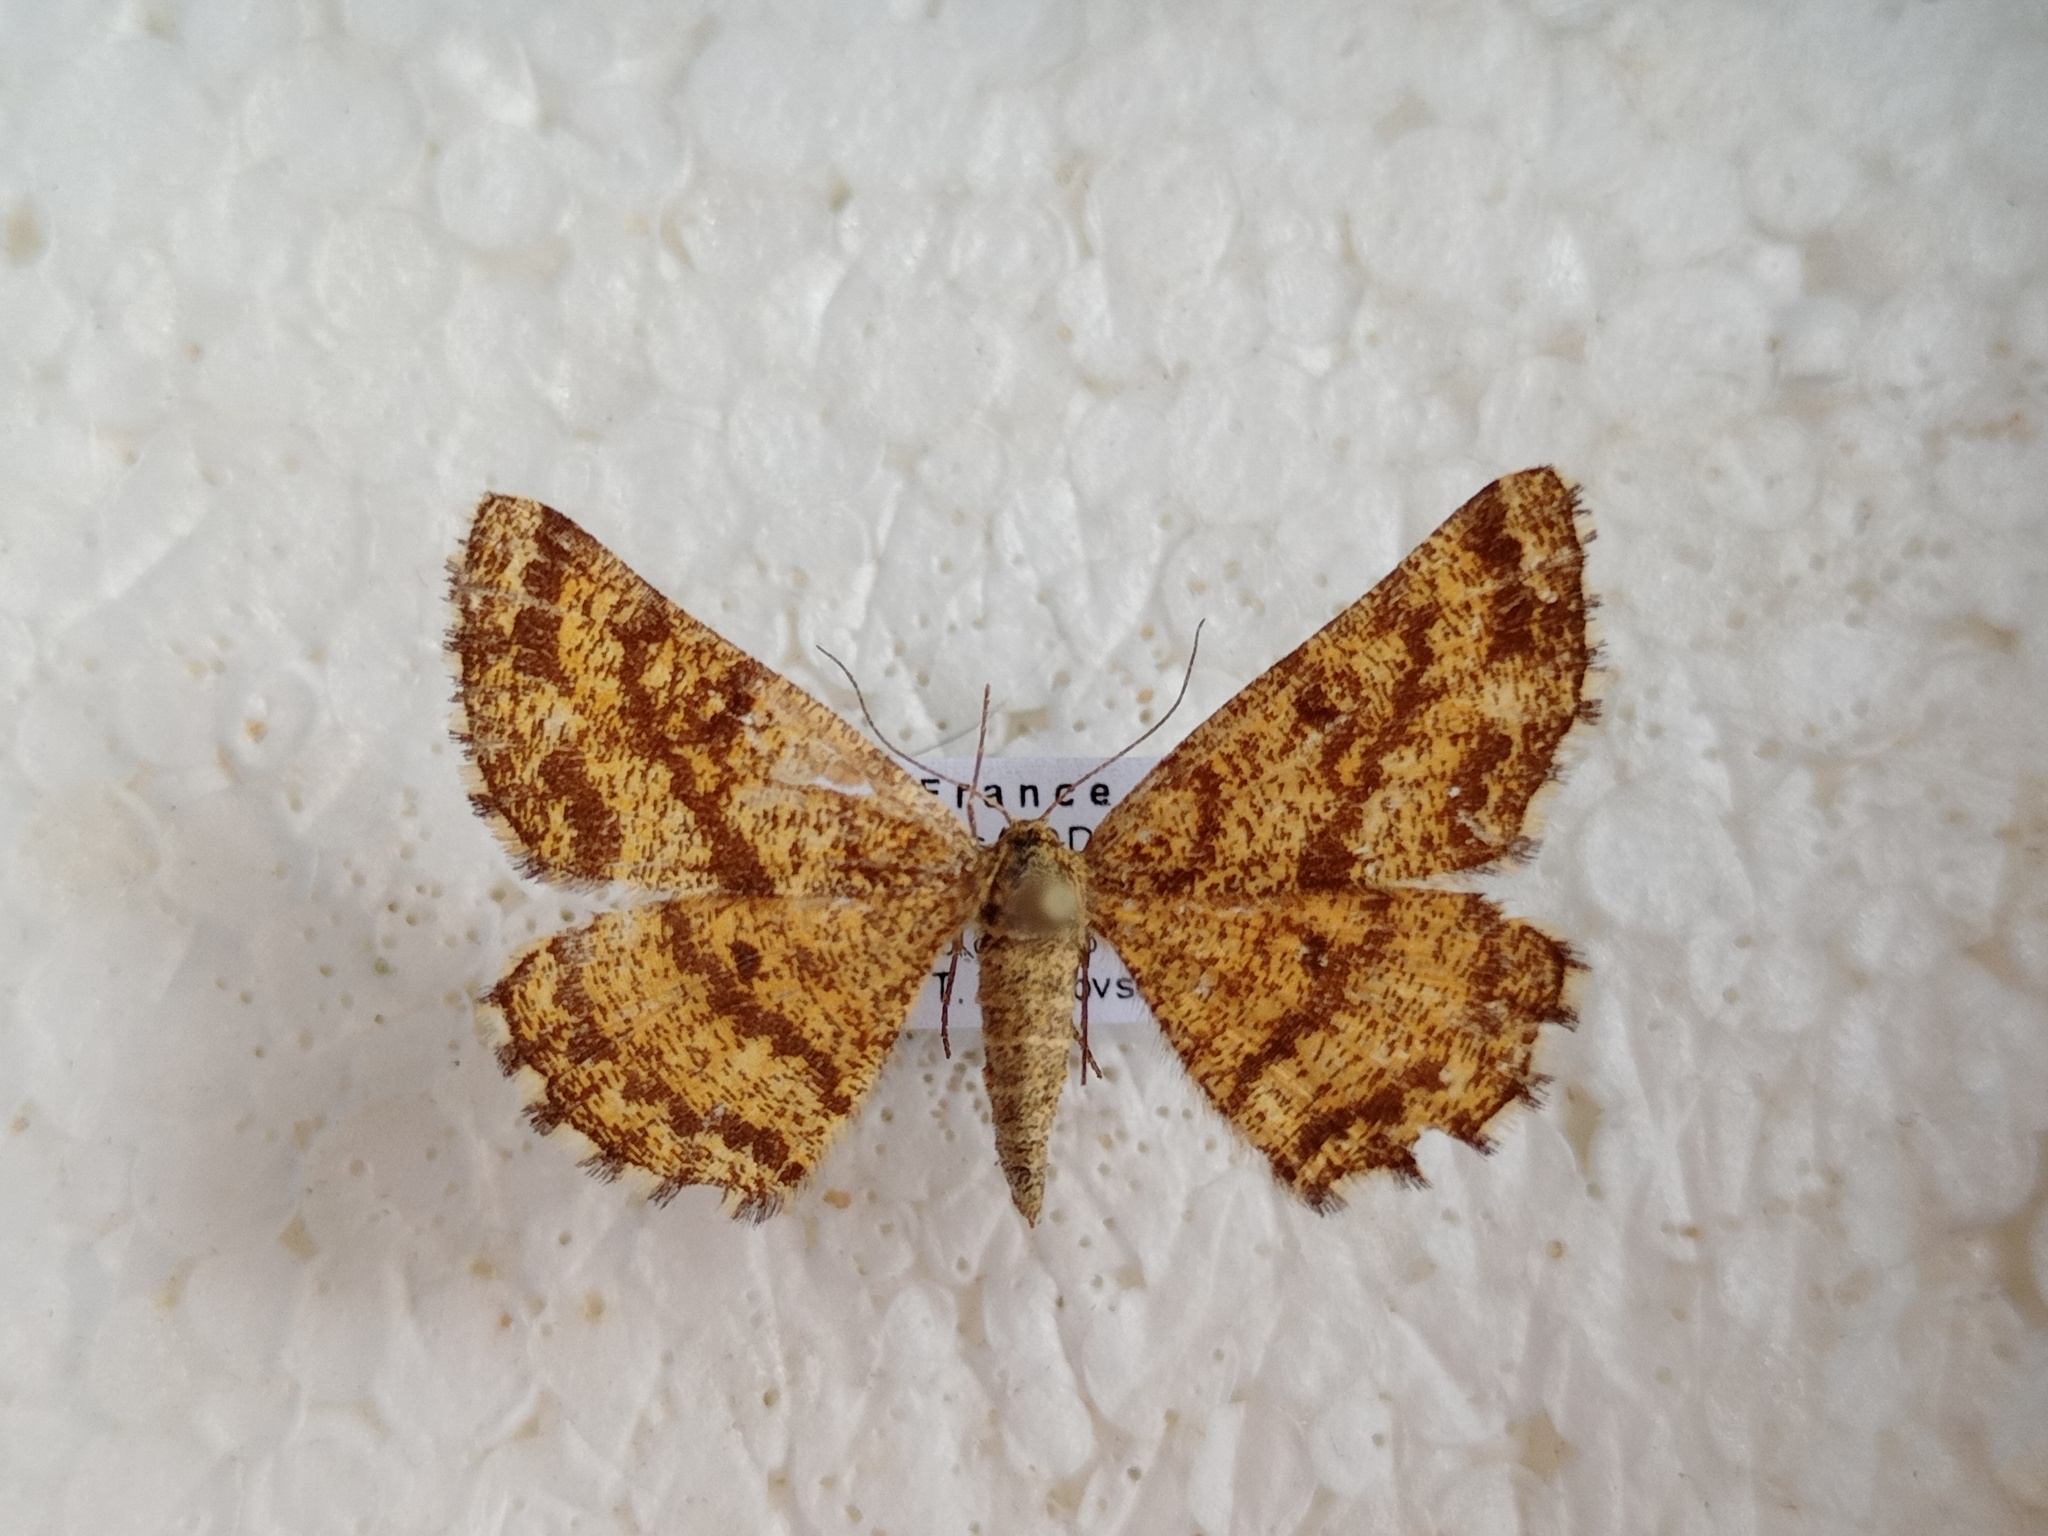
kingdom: Animalia
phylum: Arthropoda
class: Insecta
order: Lepidoptera
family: Geometridae
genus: Ematurga
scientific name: Ematurga atomaria
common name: Common heath
